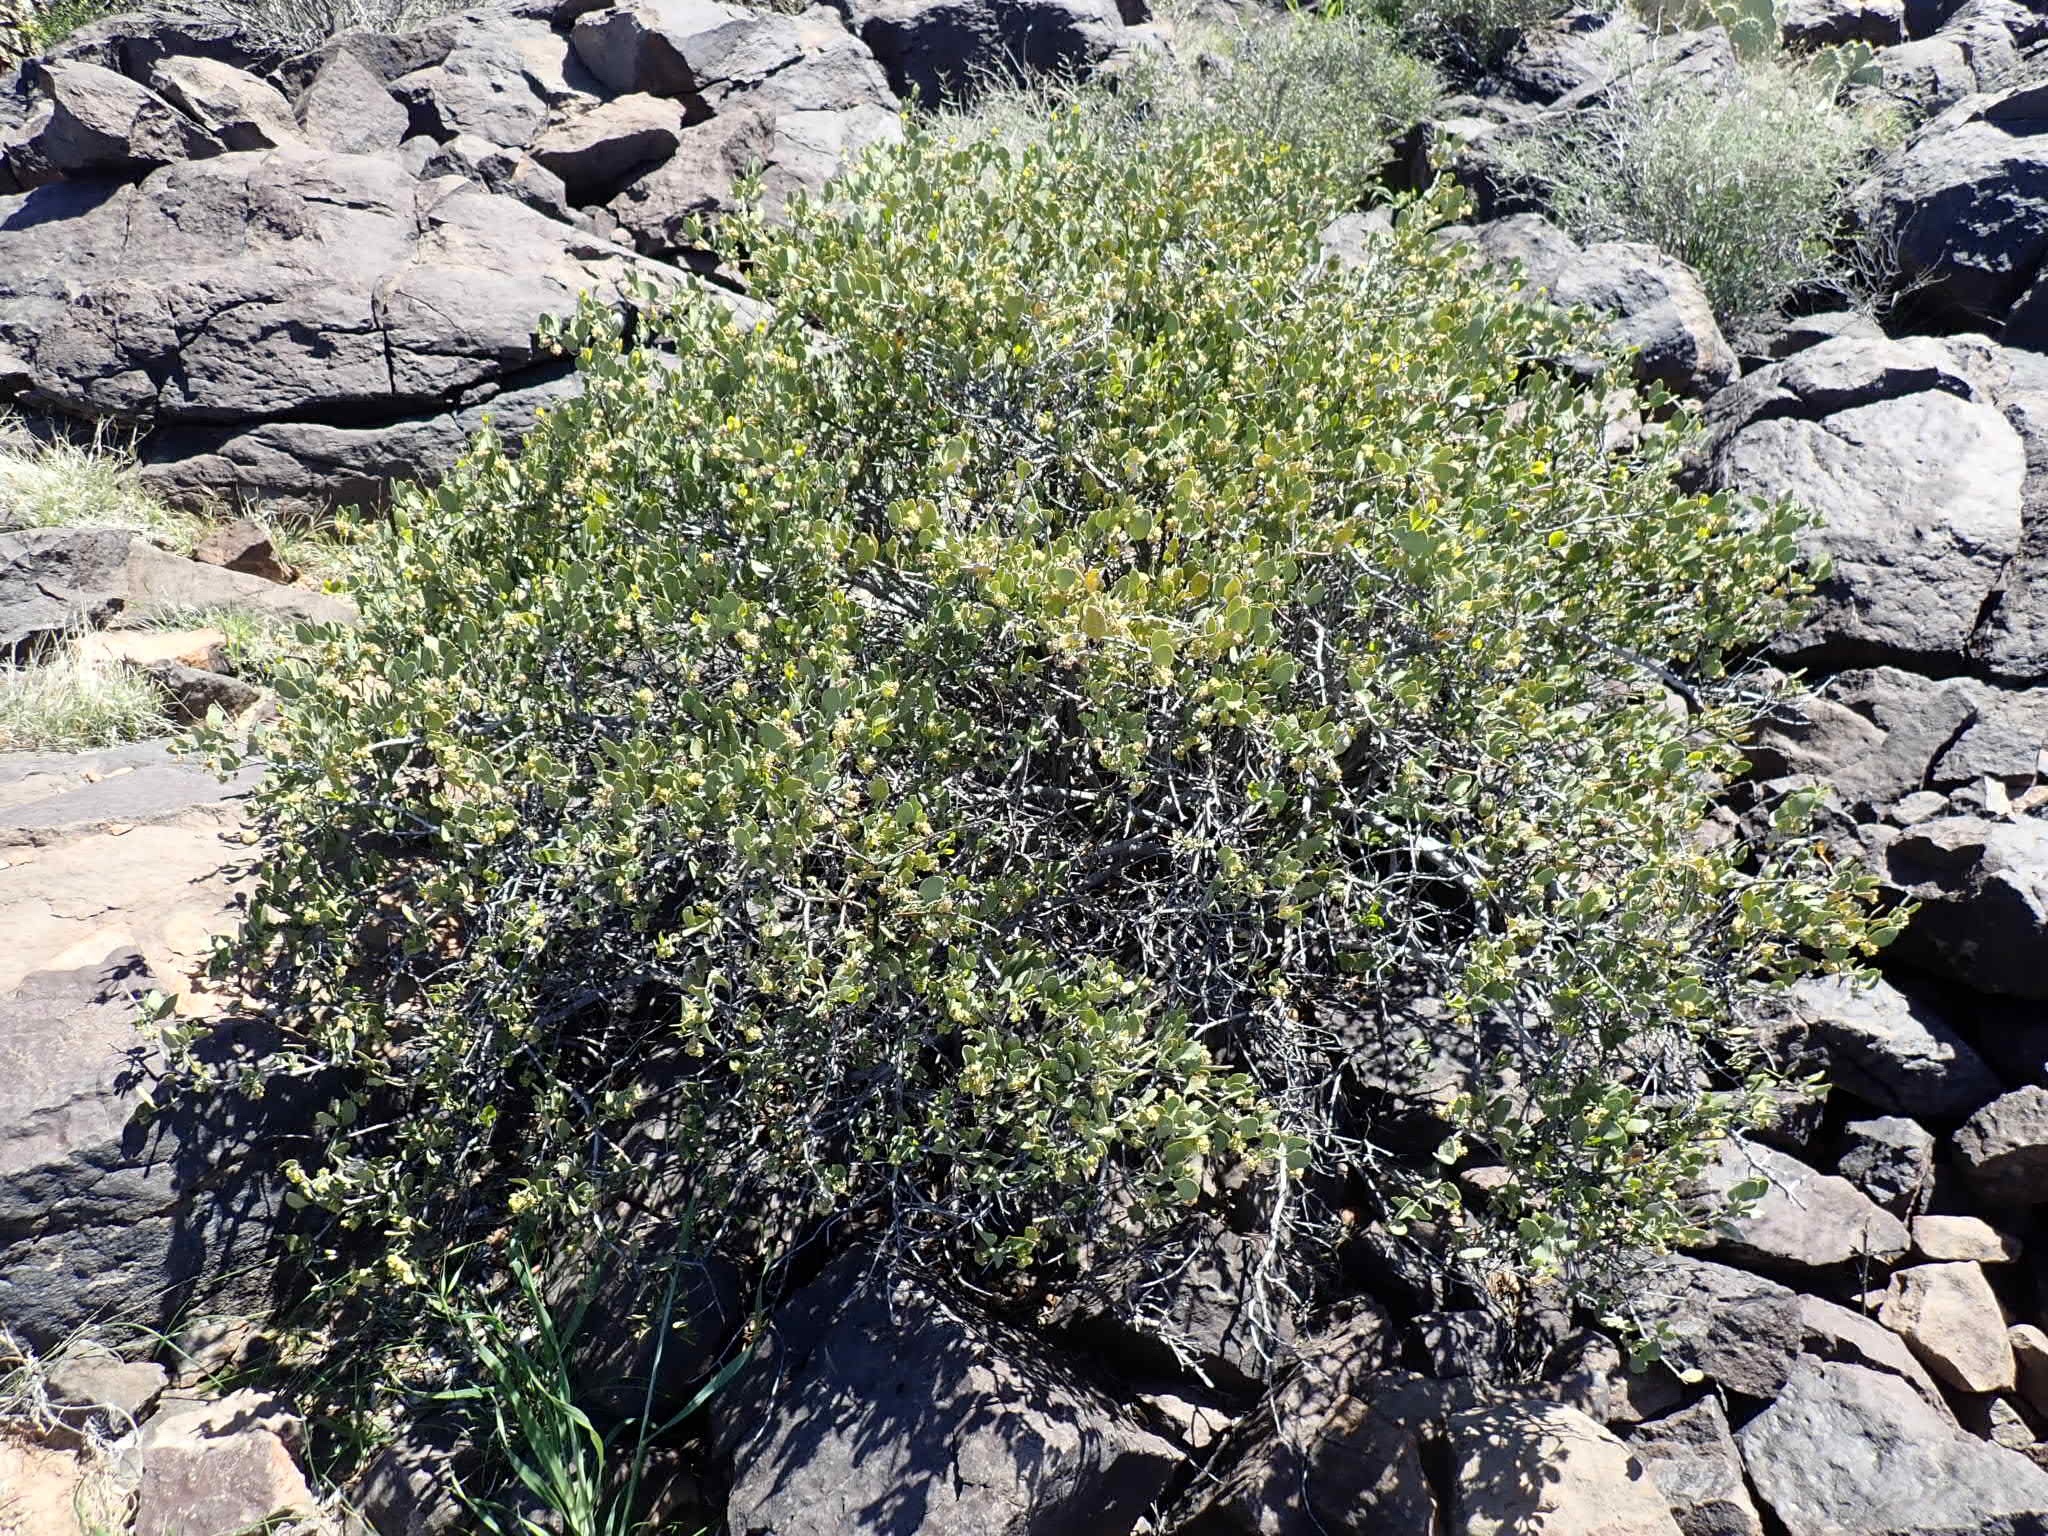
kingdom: Plantae
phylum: Tracheophyta
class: Magnoliopsida
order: Caryophyllales
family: Simmondsiaceae
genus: Simmondsia
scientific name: Simmondsia chinensis
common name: Jojoba
